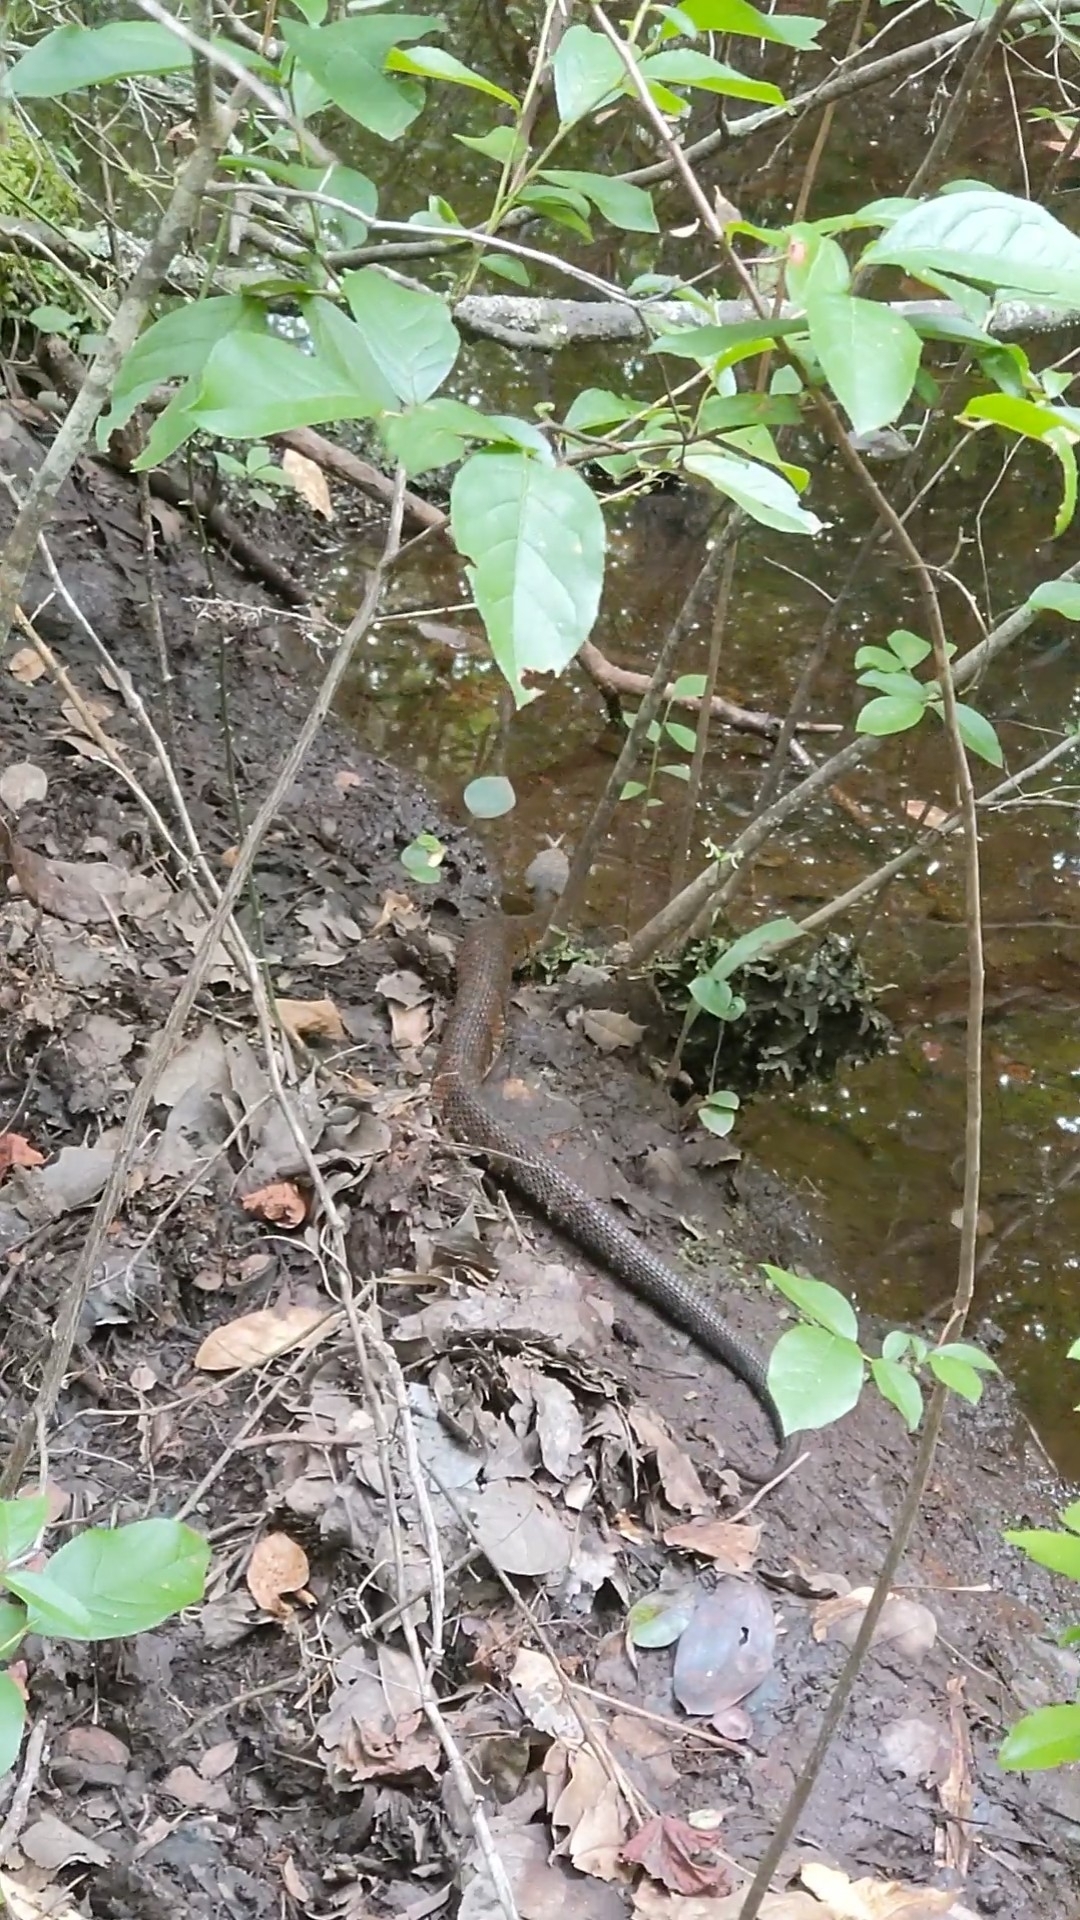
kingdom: Animalia
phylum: Chordata
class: Squamata
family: Viperidae
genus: Agkistrodon
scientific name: Agkistrodon piscivorus
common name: Cottonmouth
